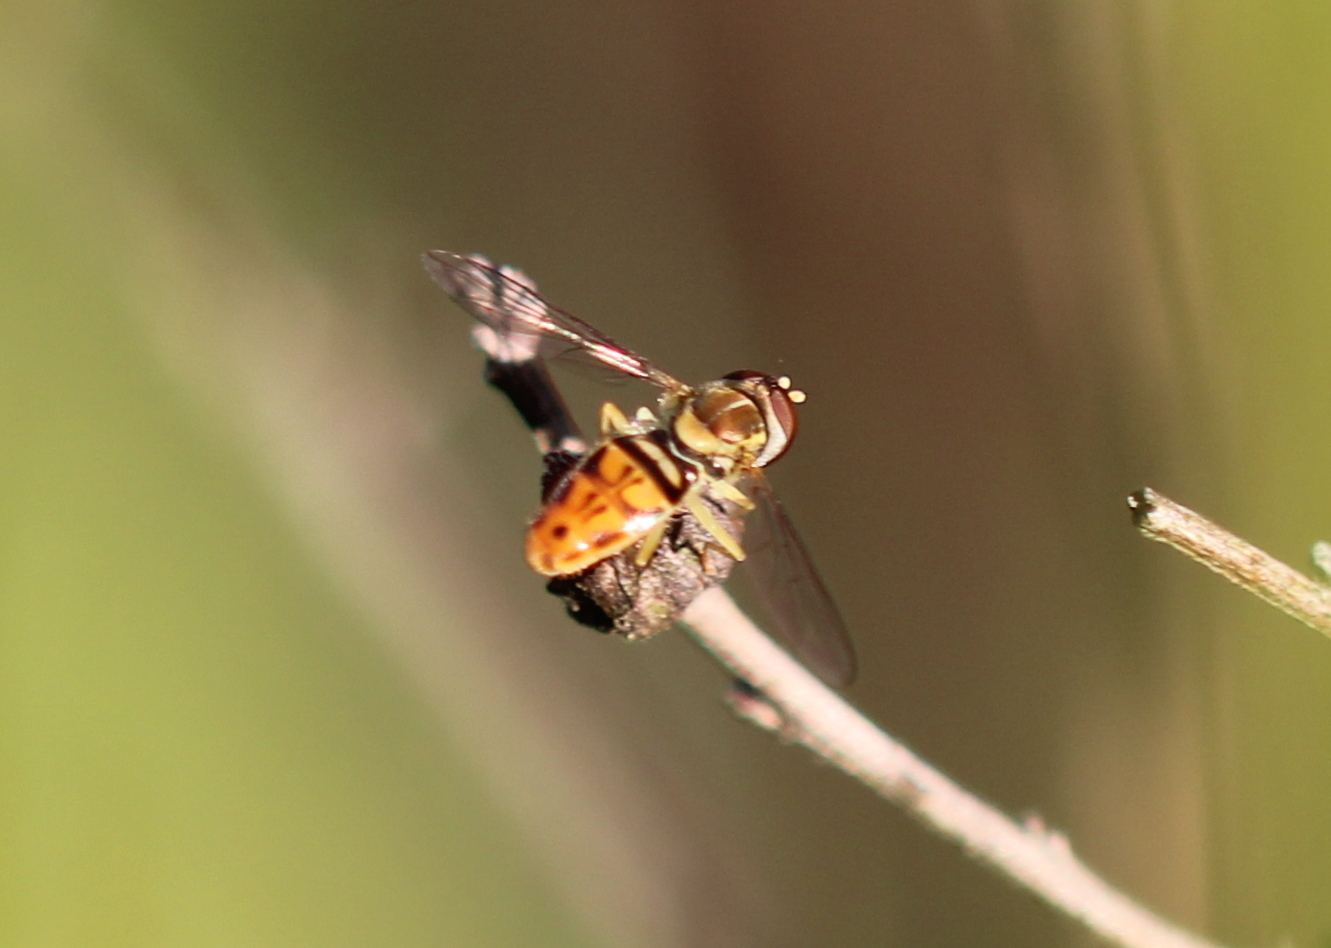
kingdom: Animalia
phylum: Arthropoda
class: Insecta
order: Diptera
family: Syrphidae
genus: Toxomerus
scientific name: Toxomerus marginatus
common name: Syrphid fly
